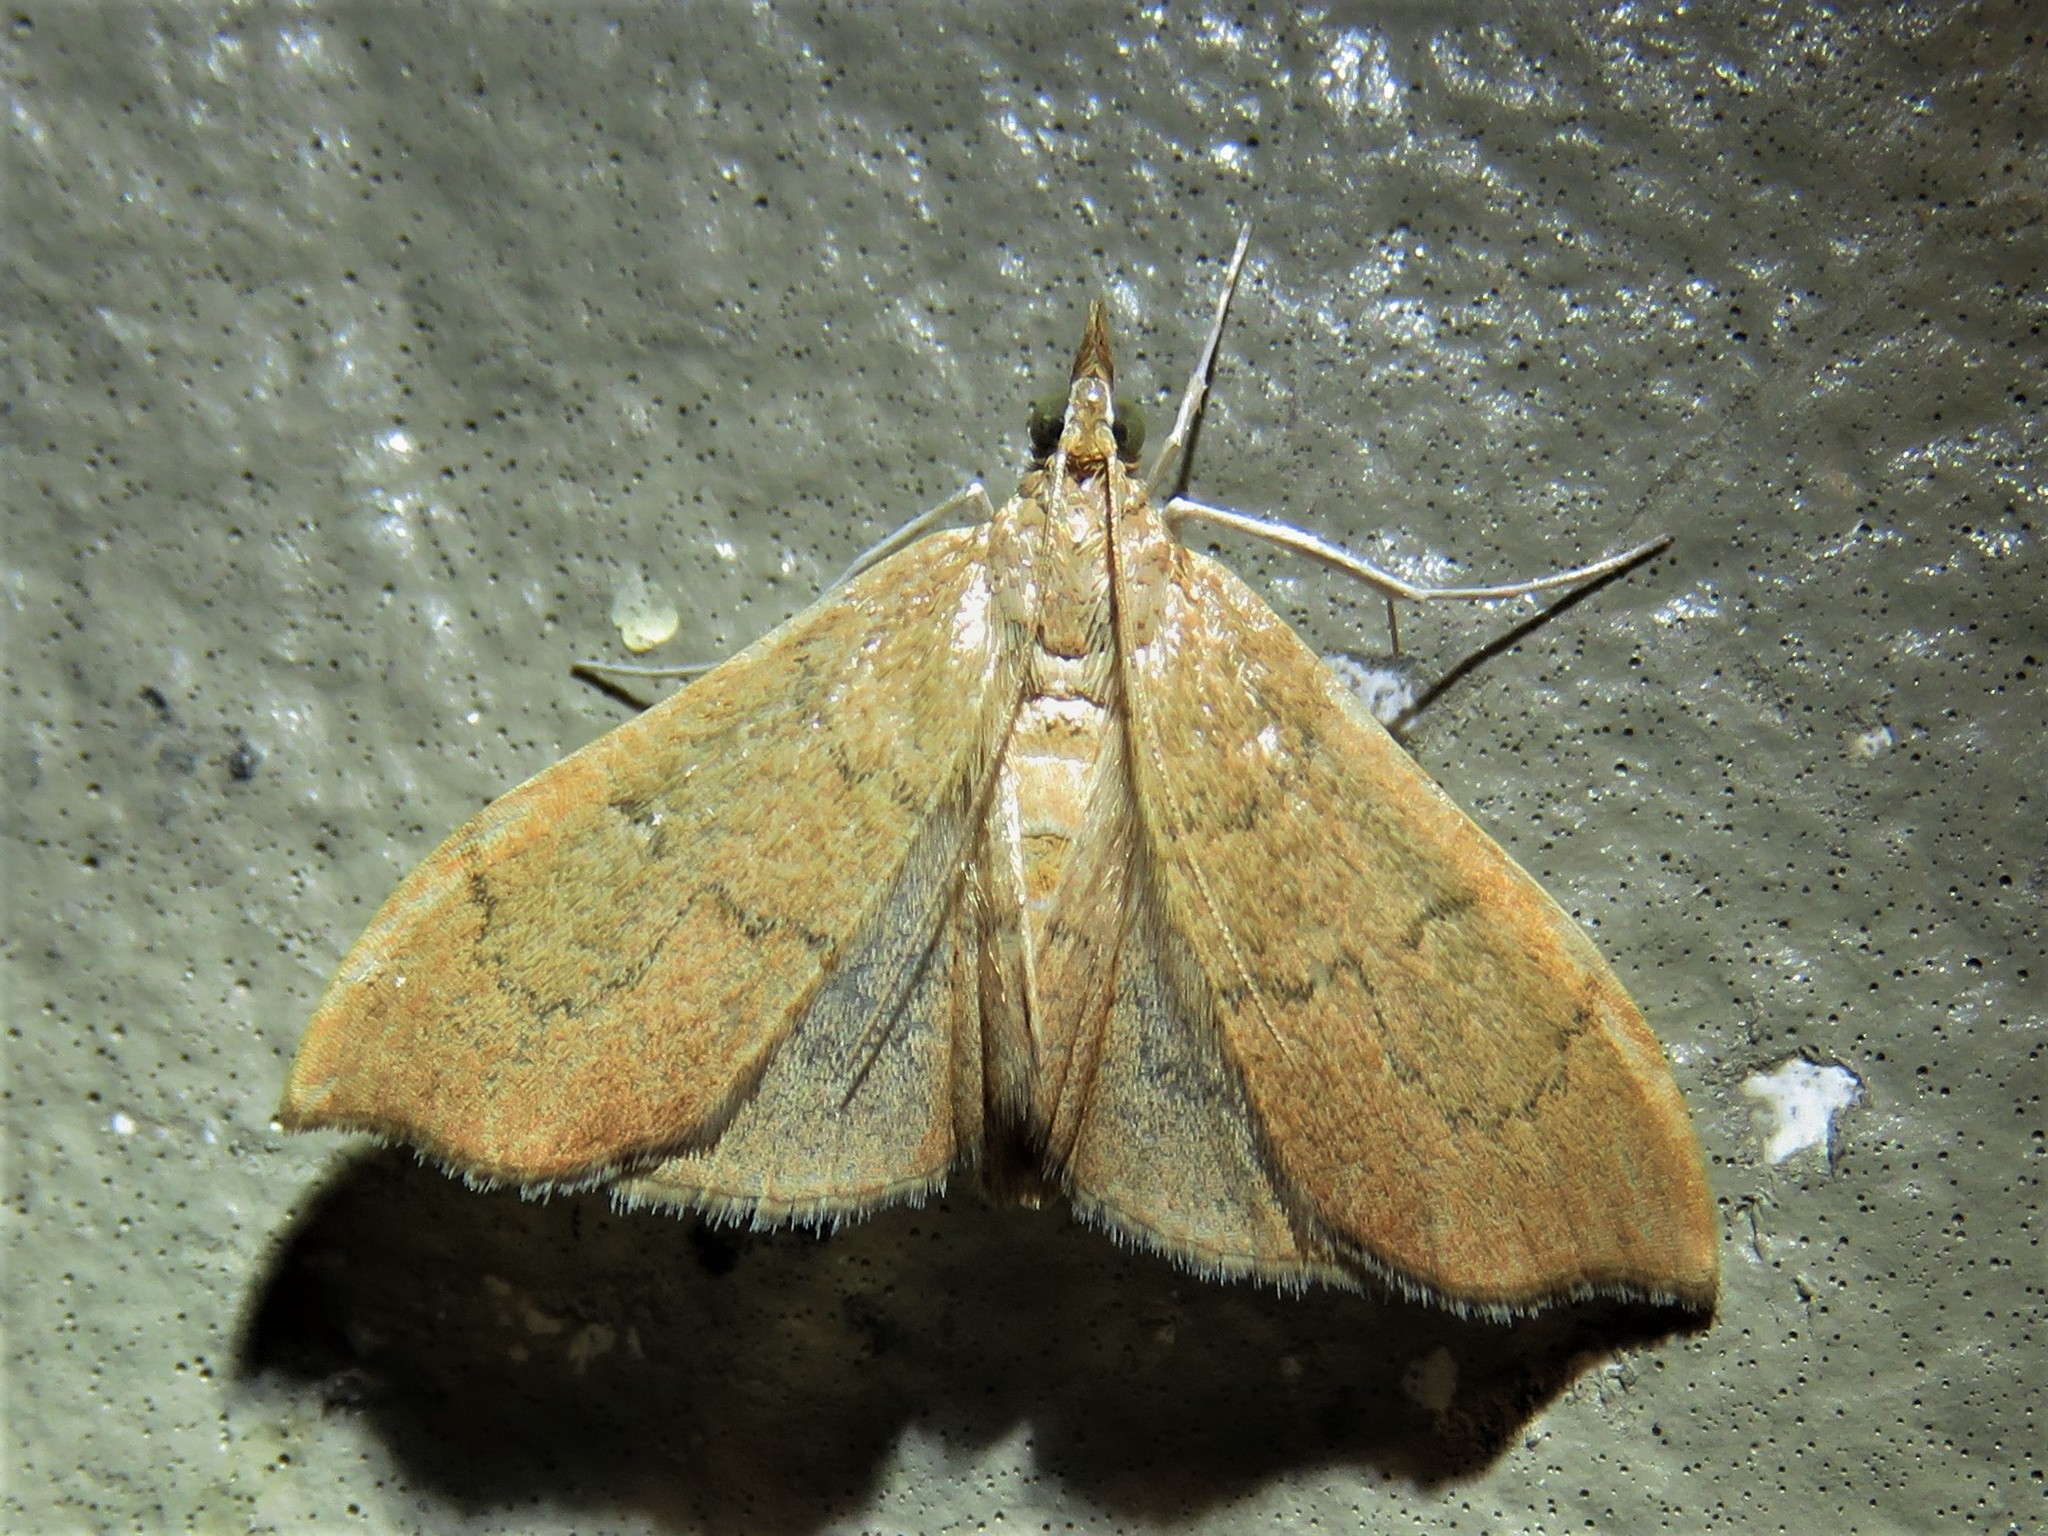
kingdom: Animalia
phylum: Arthropoda
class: Insecta
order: Lepidoptera
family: Crambidae
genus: Sericoplaga
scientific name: Sericoplaga externalis
